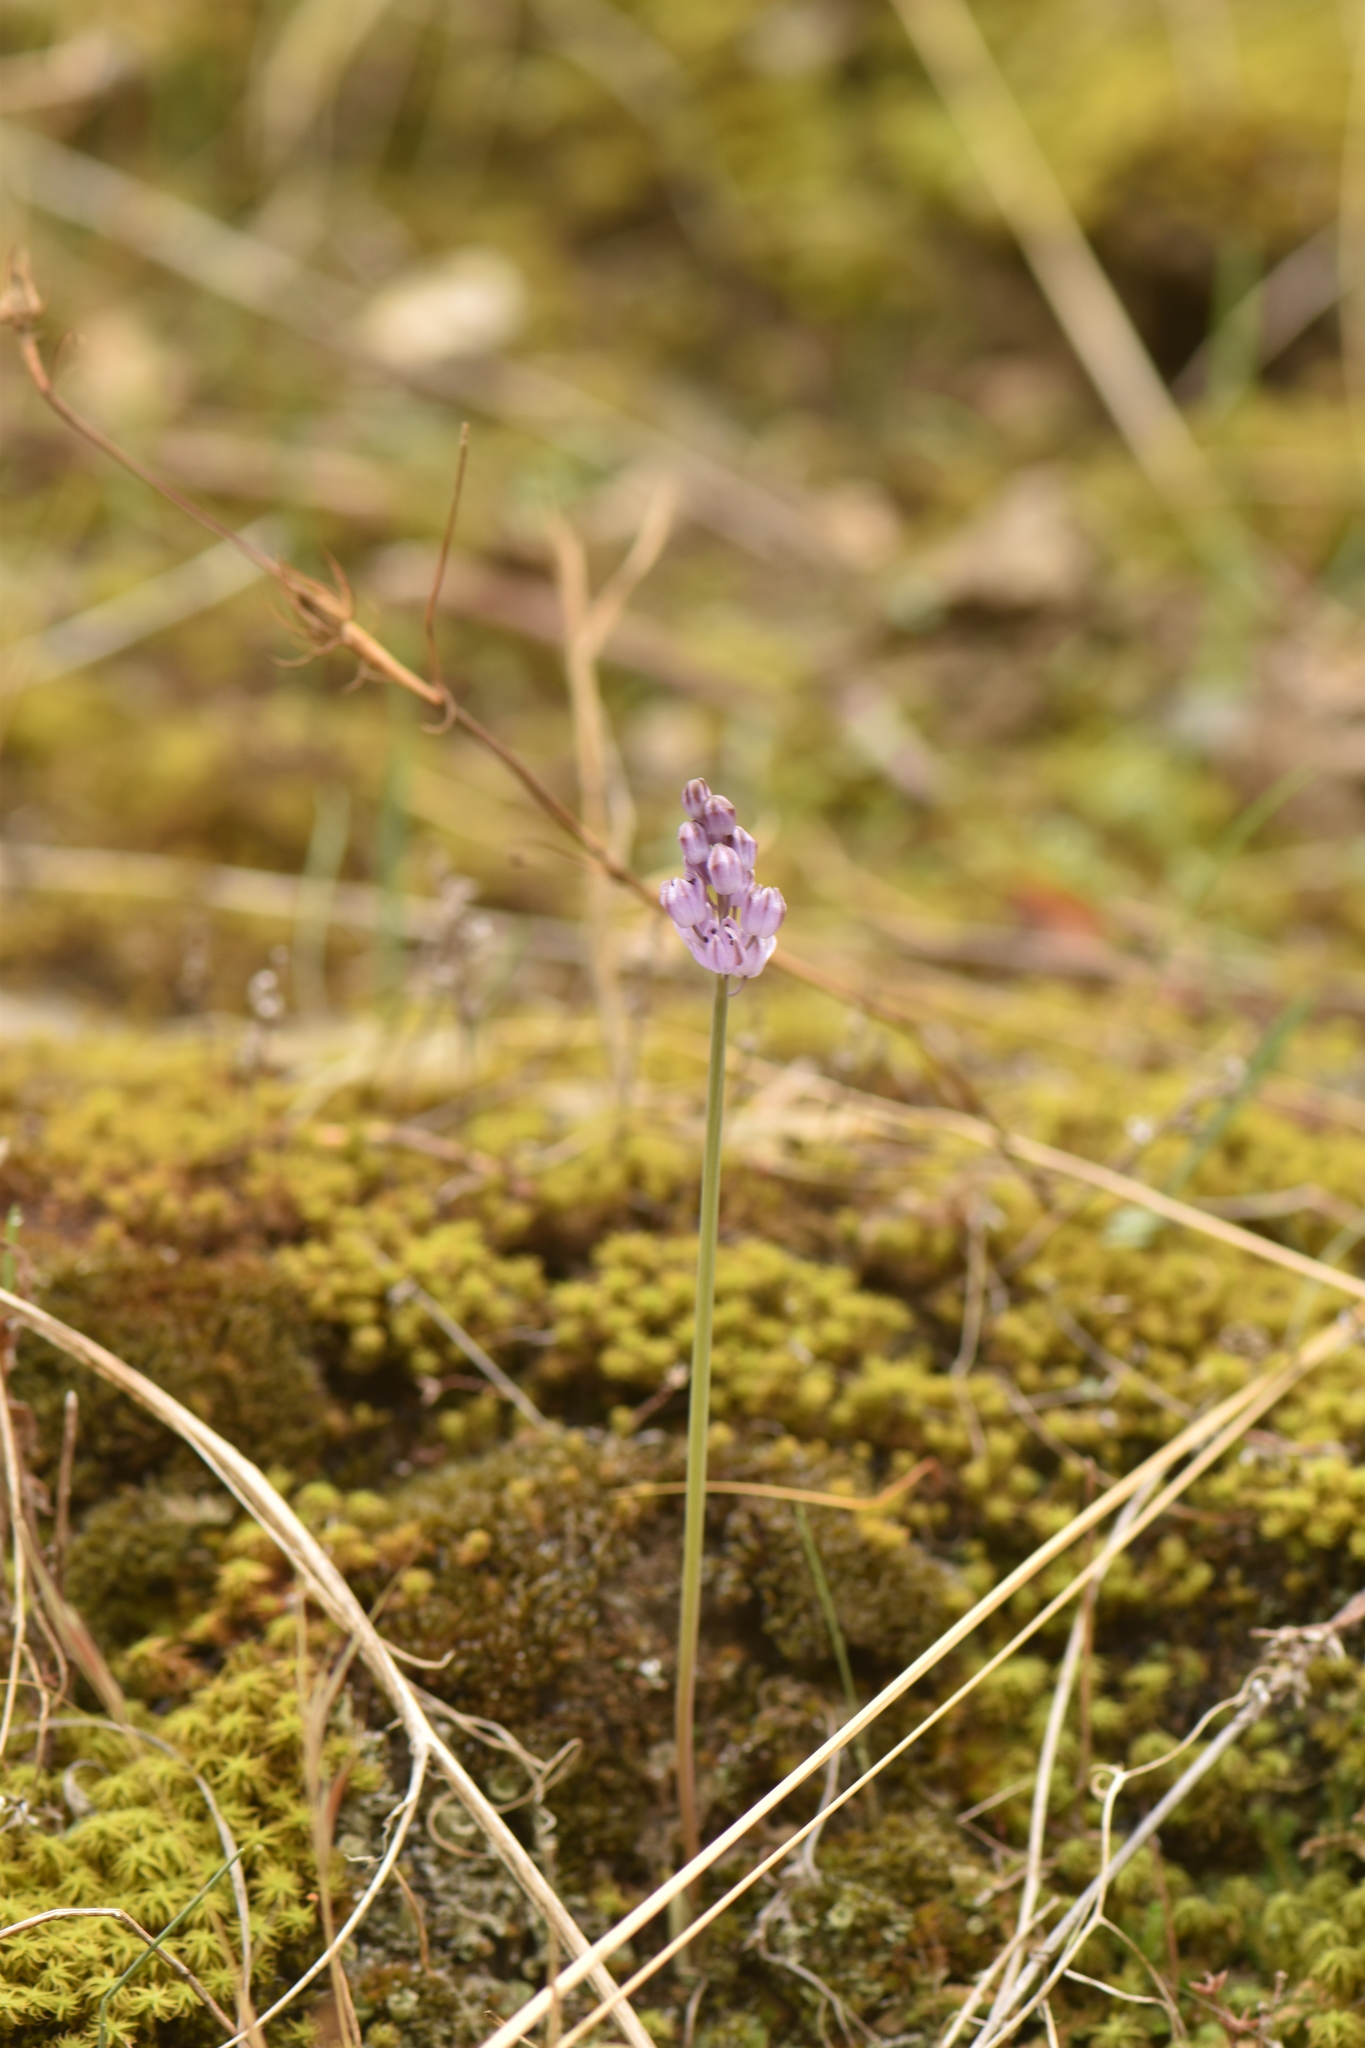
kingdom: Plantae
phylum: Tracheophyta
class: Liliopsida
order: Asparagales
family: Asparagaceae
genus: Prospero
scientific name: Prospero autumnale
